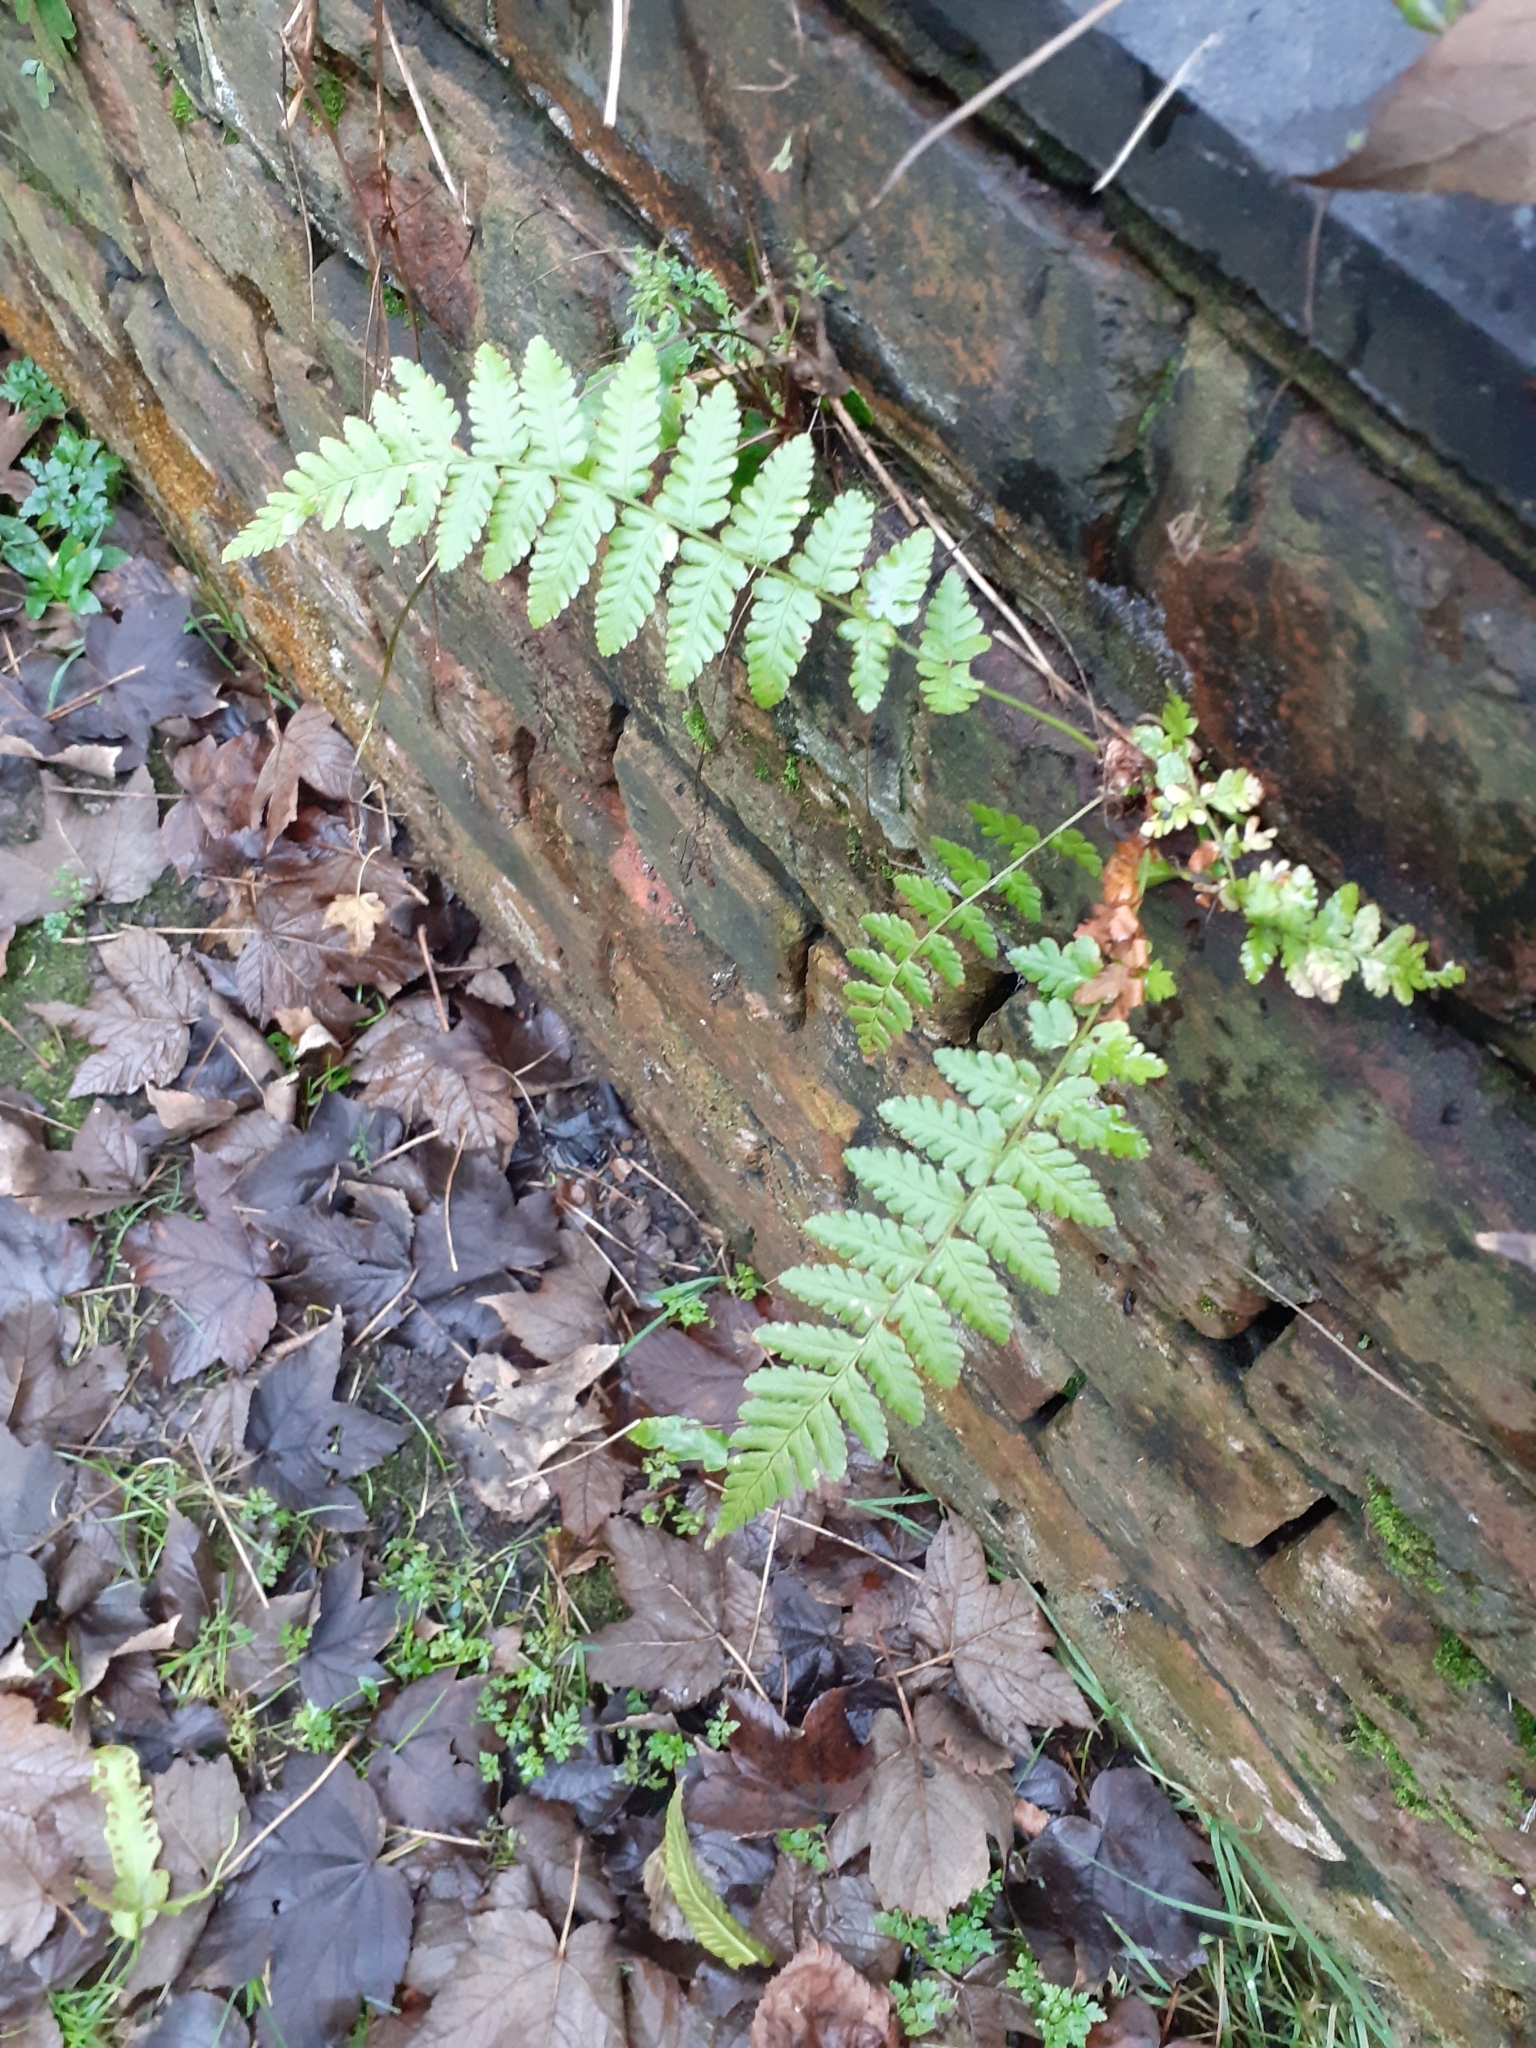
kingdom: Plantae
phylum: Tracheophyta
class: Polypodiopsida
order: Polypodiales
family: Dryopteridaceae
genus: Dryopteris
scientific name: Dryopteris filix-mas
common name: Male fern
